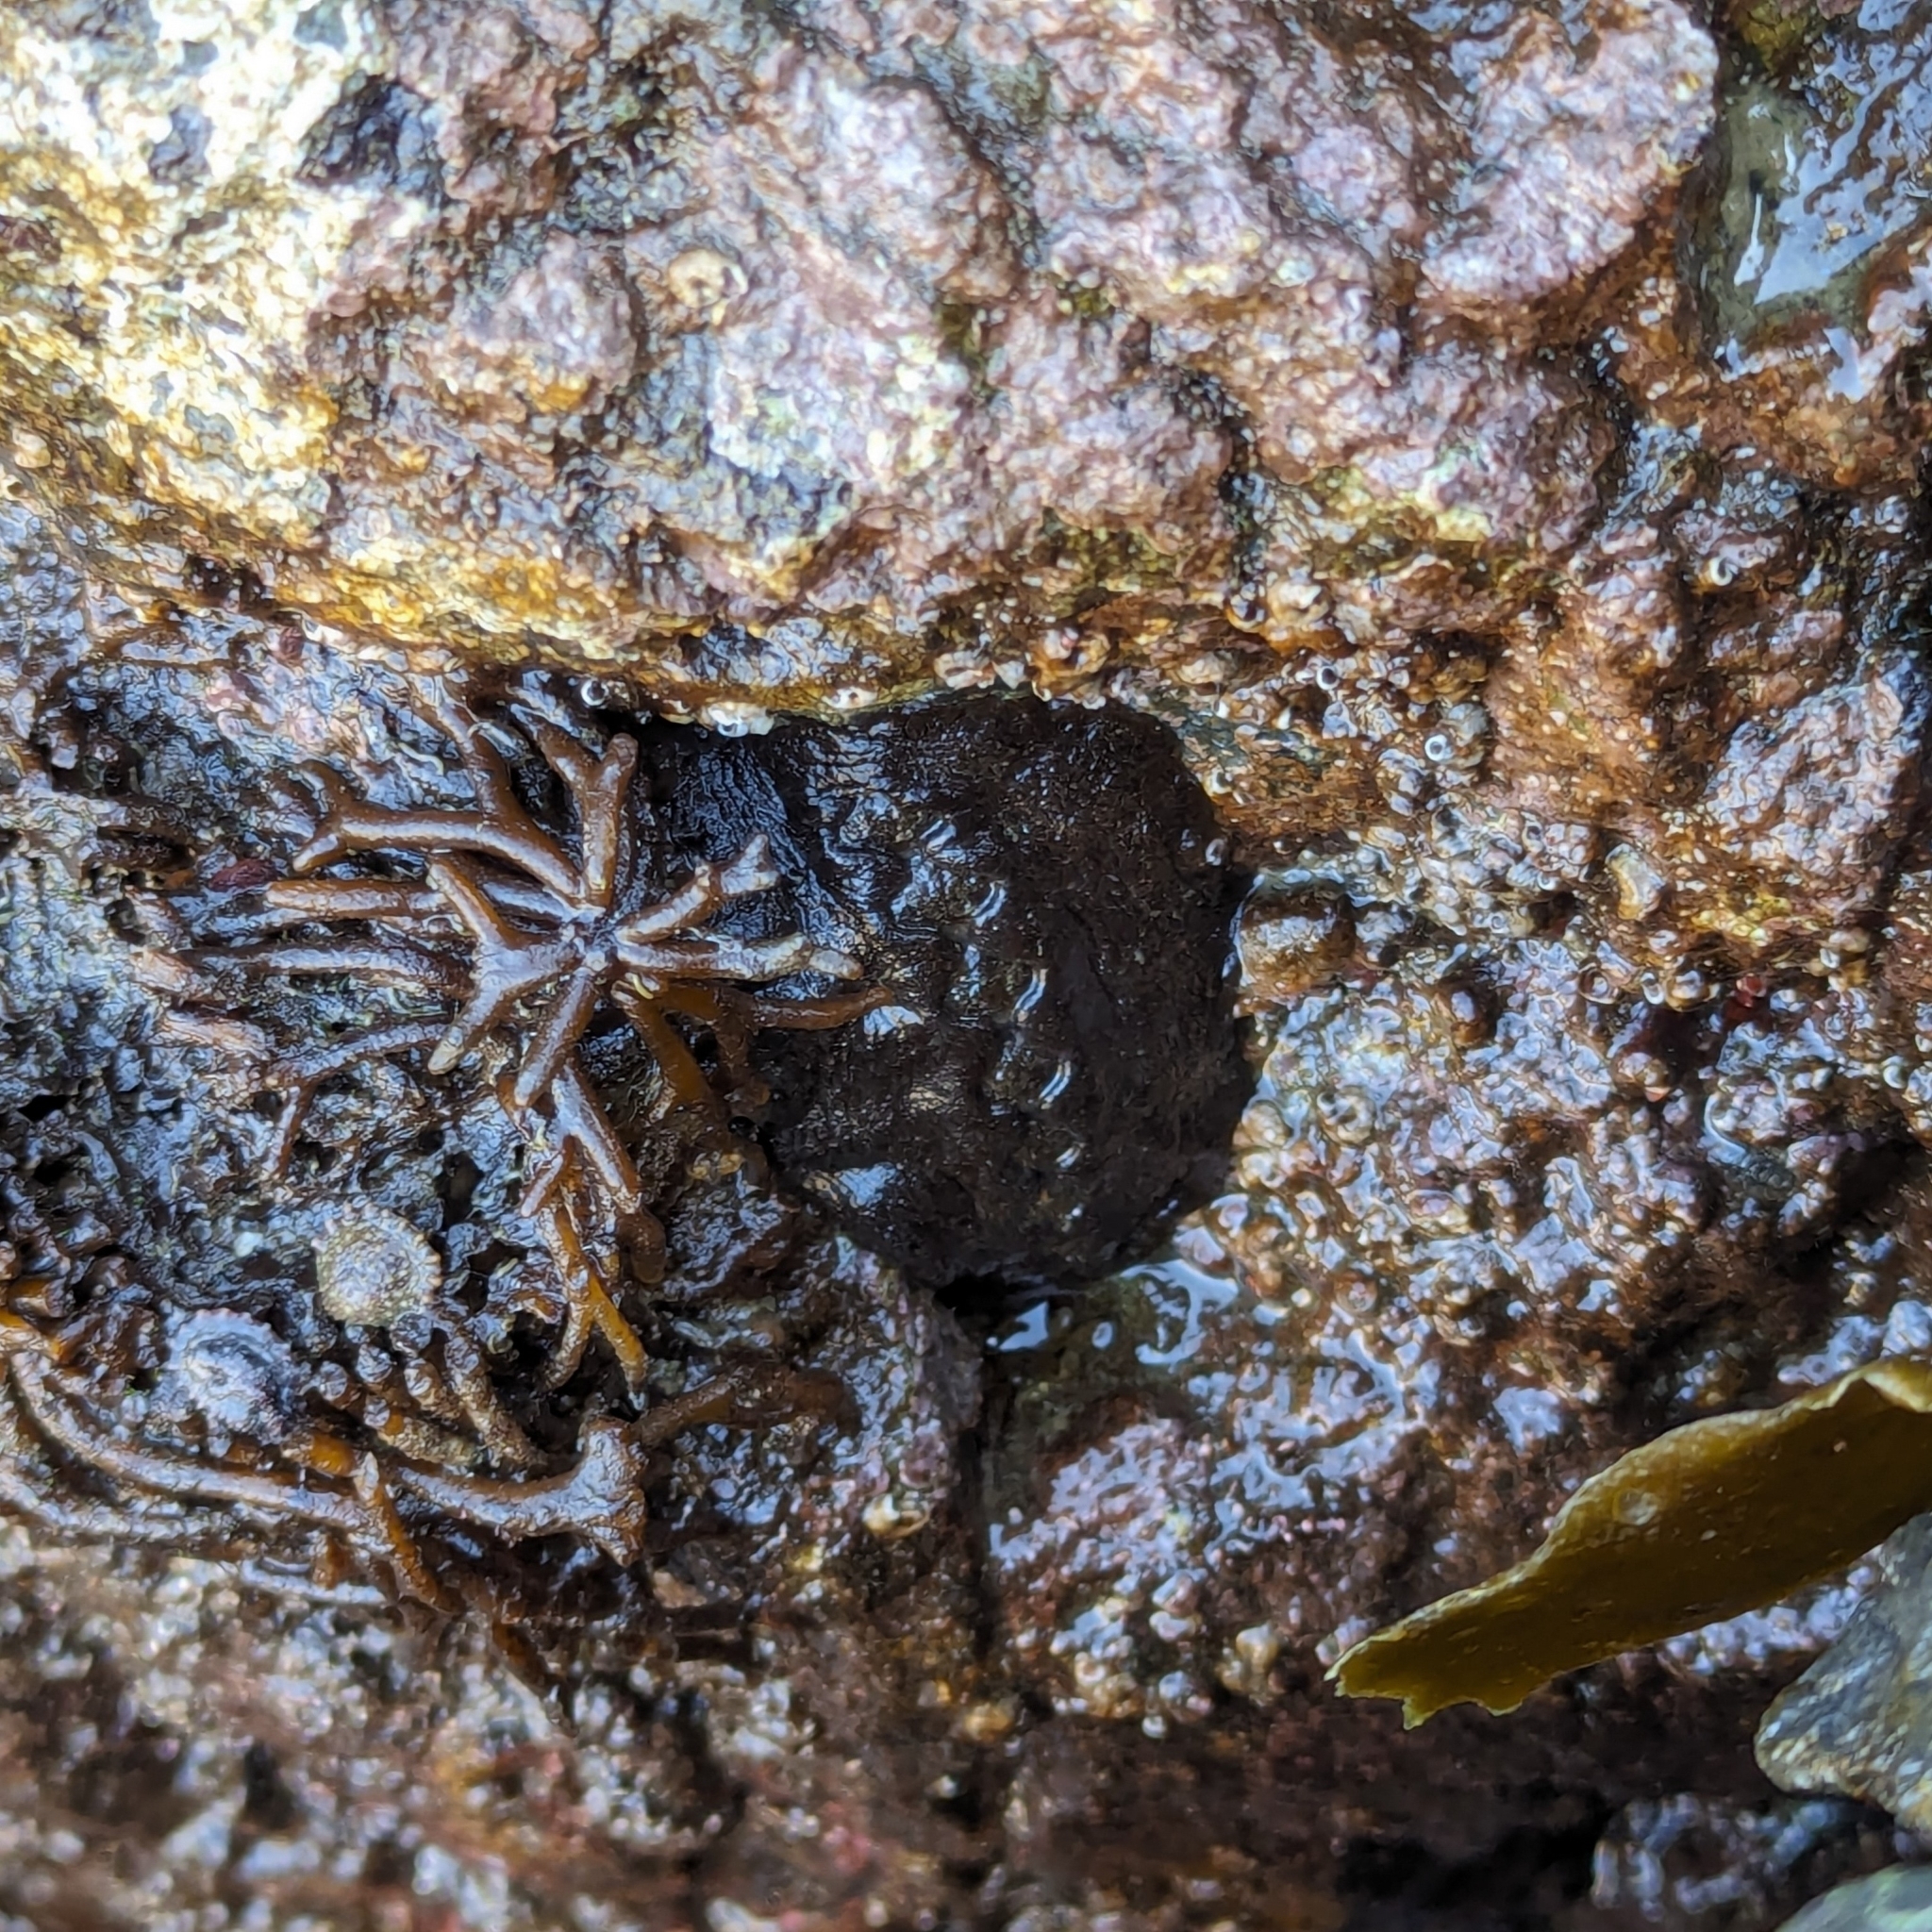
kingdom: Animalia
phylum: Mollusca
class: Polyplacophora
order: Chitonida
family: Mopaliidae
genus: Katharina
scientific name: Katharina tunicata
